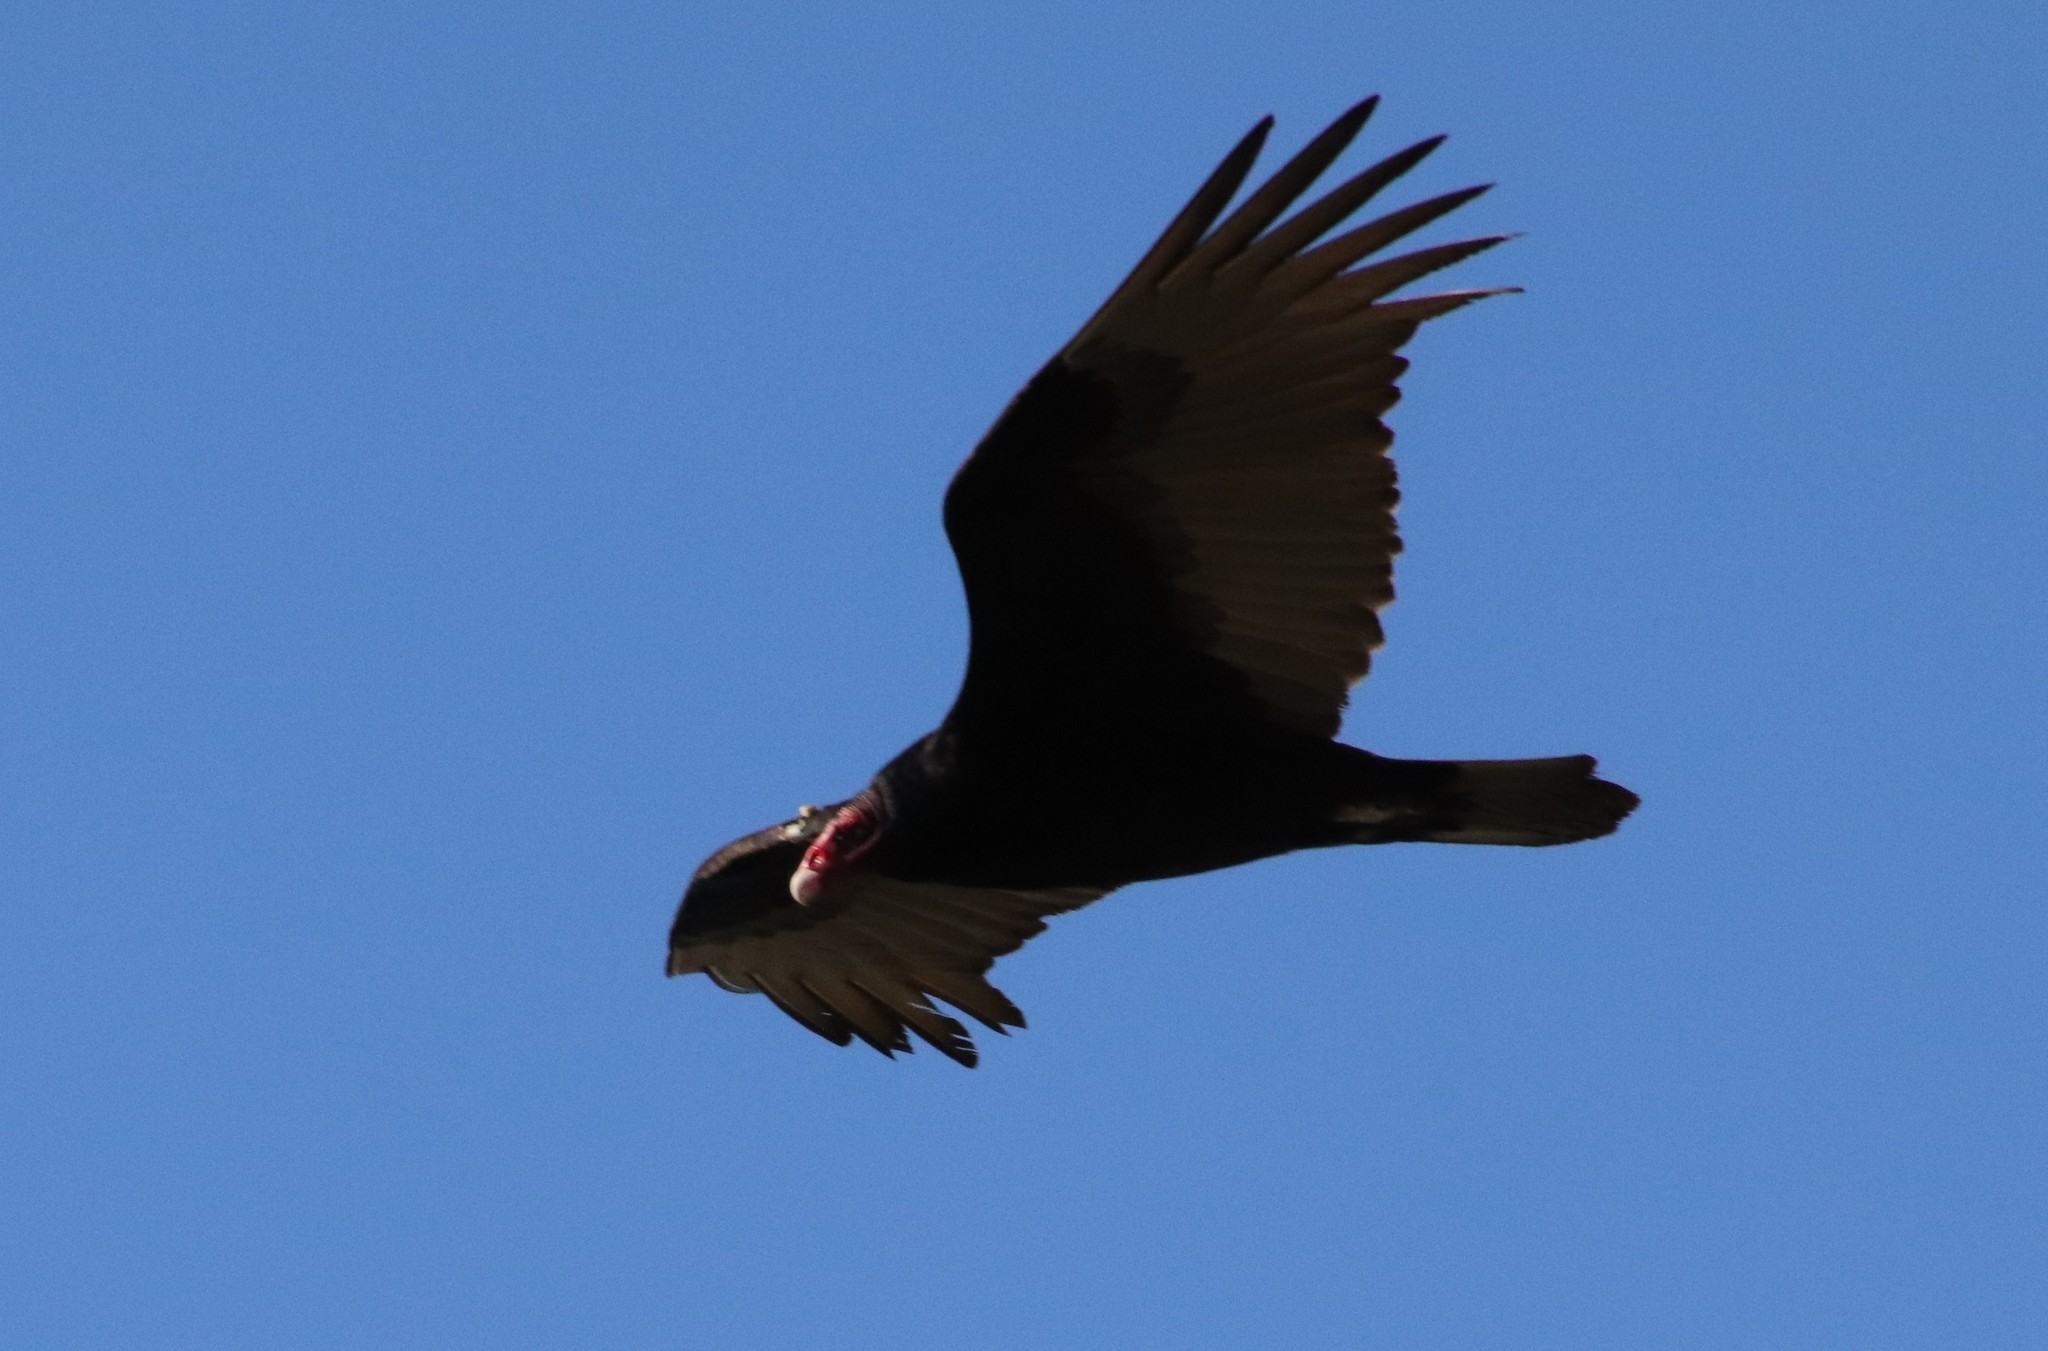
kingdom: Animalia
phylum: Chordata
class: Aves
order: Accipitriformes
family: Cathartidae
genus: Cathartes
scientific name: Cathartes aura
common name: Turkey vulture
